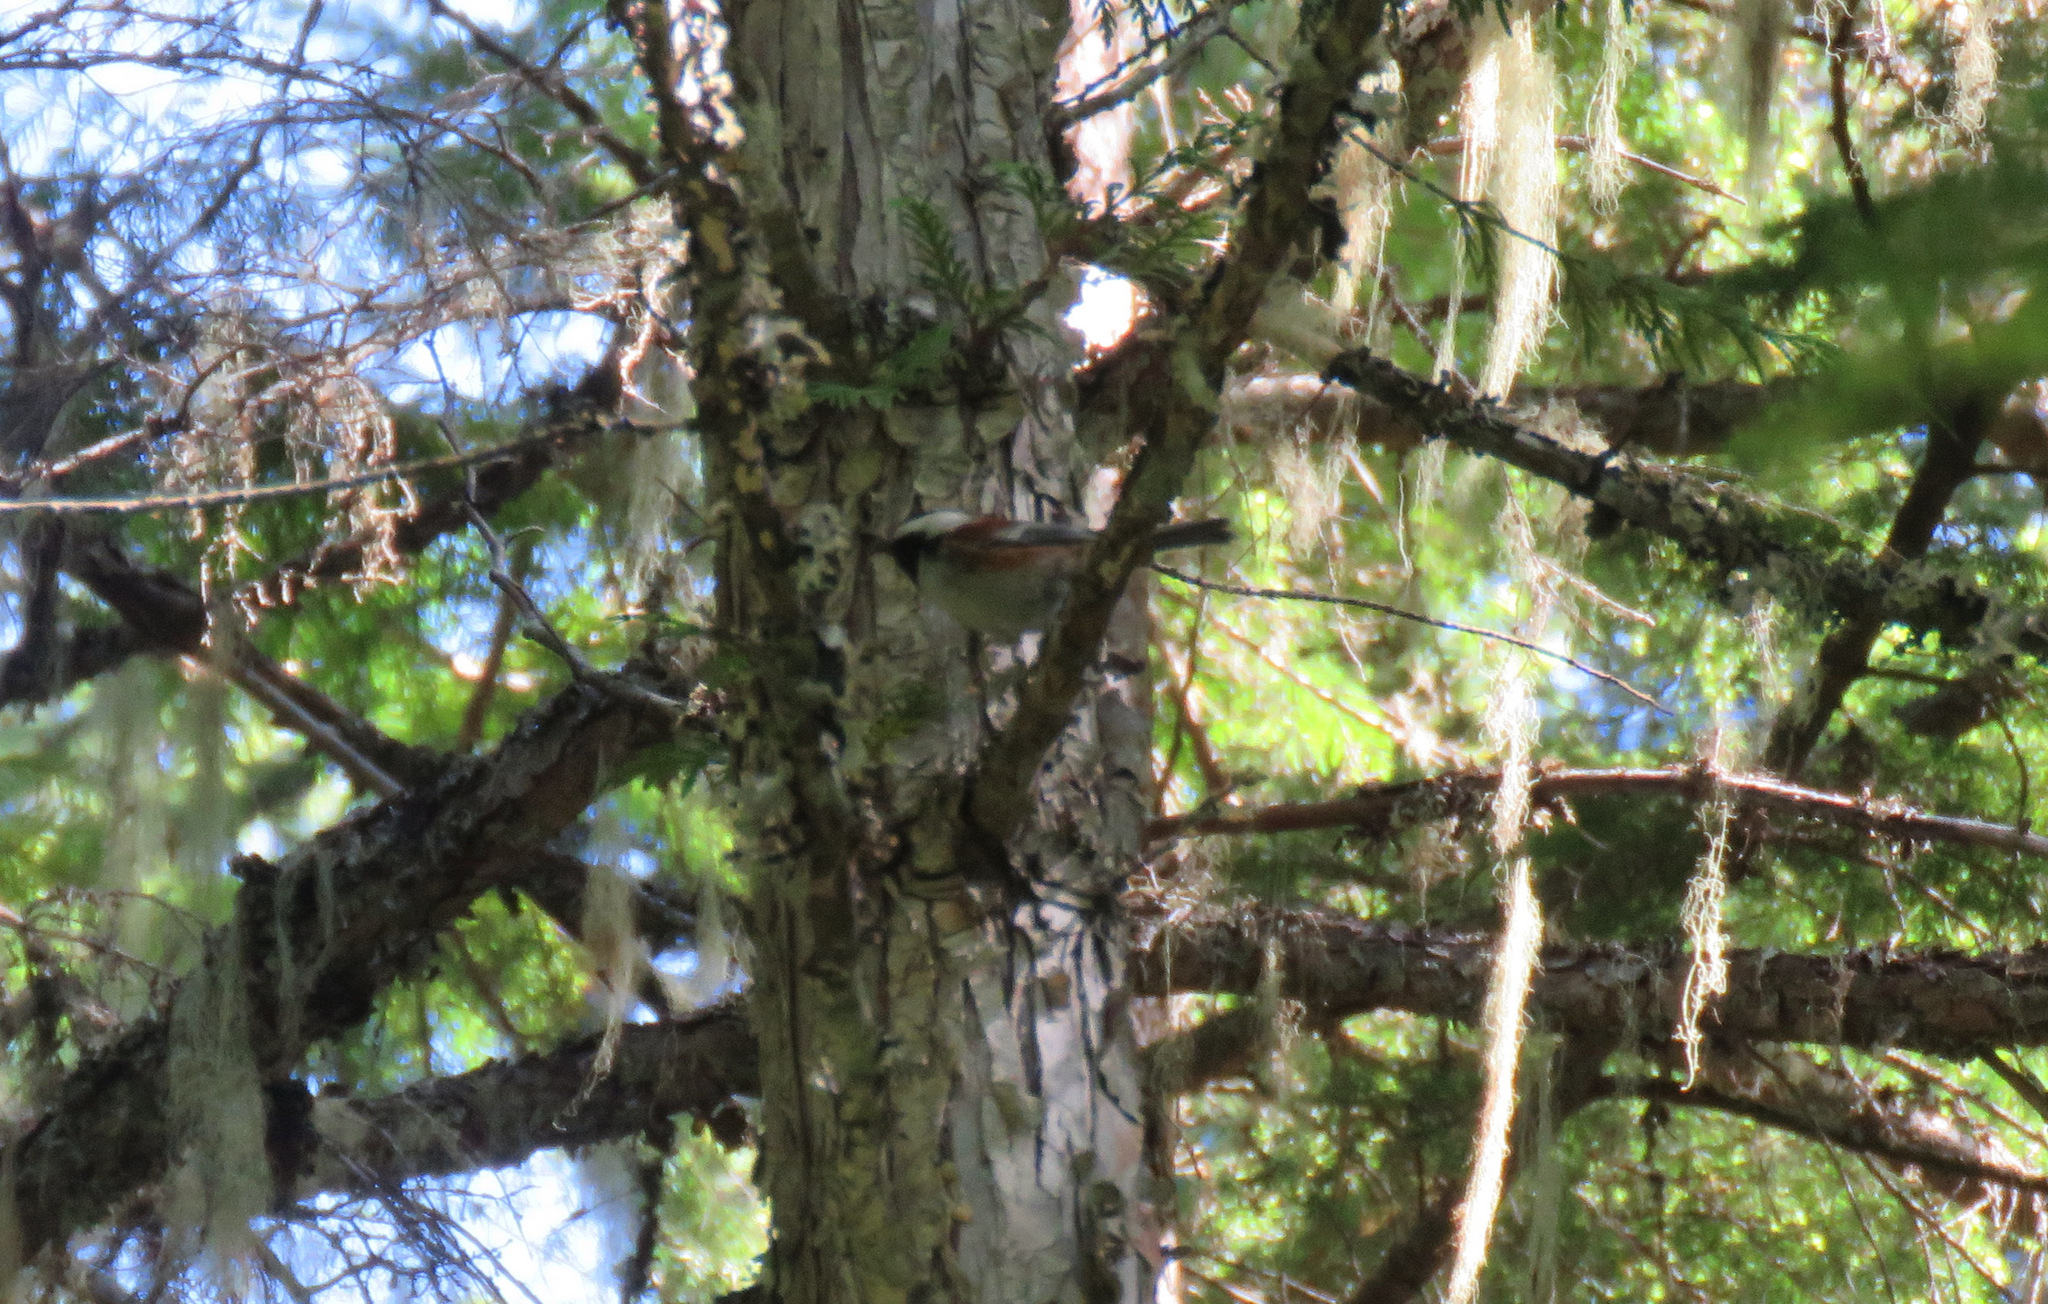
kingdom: Animalia
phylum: Chordata
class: Aves
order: Passeriformes
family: Paridae
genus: Poecile
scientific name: Poecile rufescens
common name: Chestnut-backed chickadee
